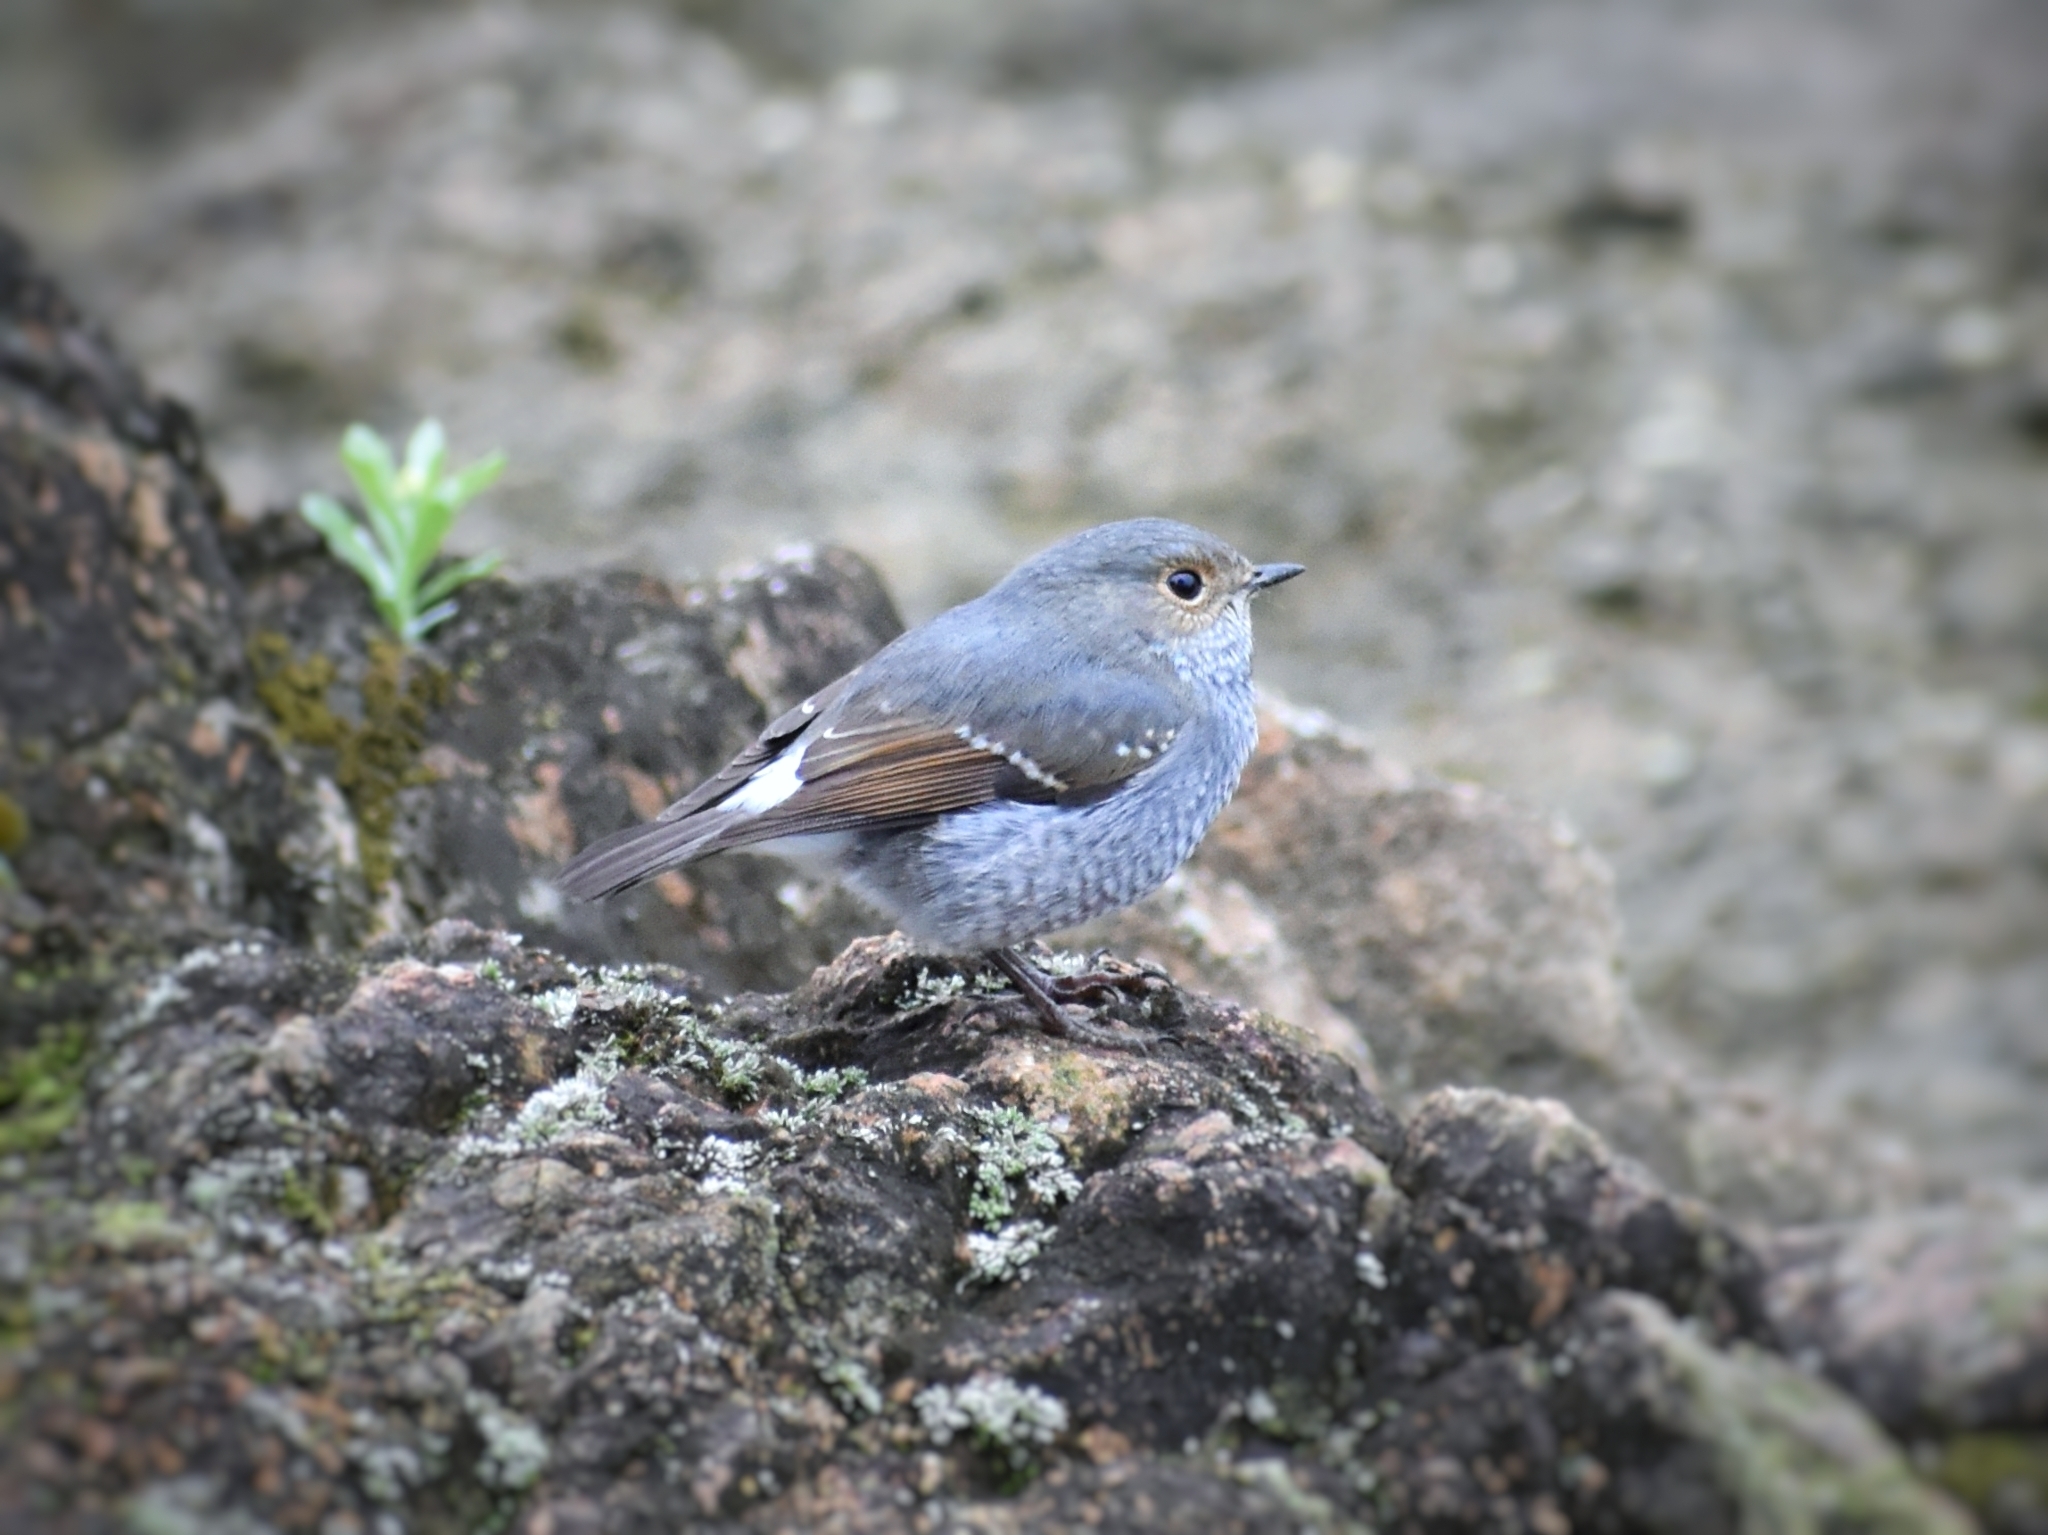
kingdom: Animalia
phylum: Chordata
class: Aves
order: Passeriformes
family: Muscicapidae
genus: Phoenicurus
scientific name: Phoenicurus fuliginosus
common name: Plumbeous water redstart
